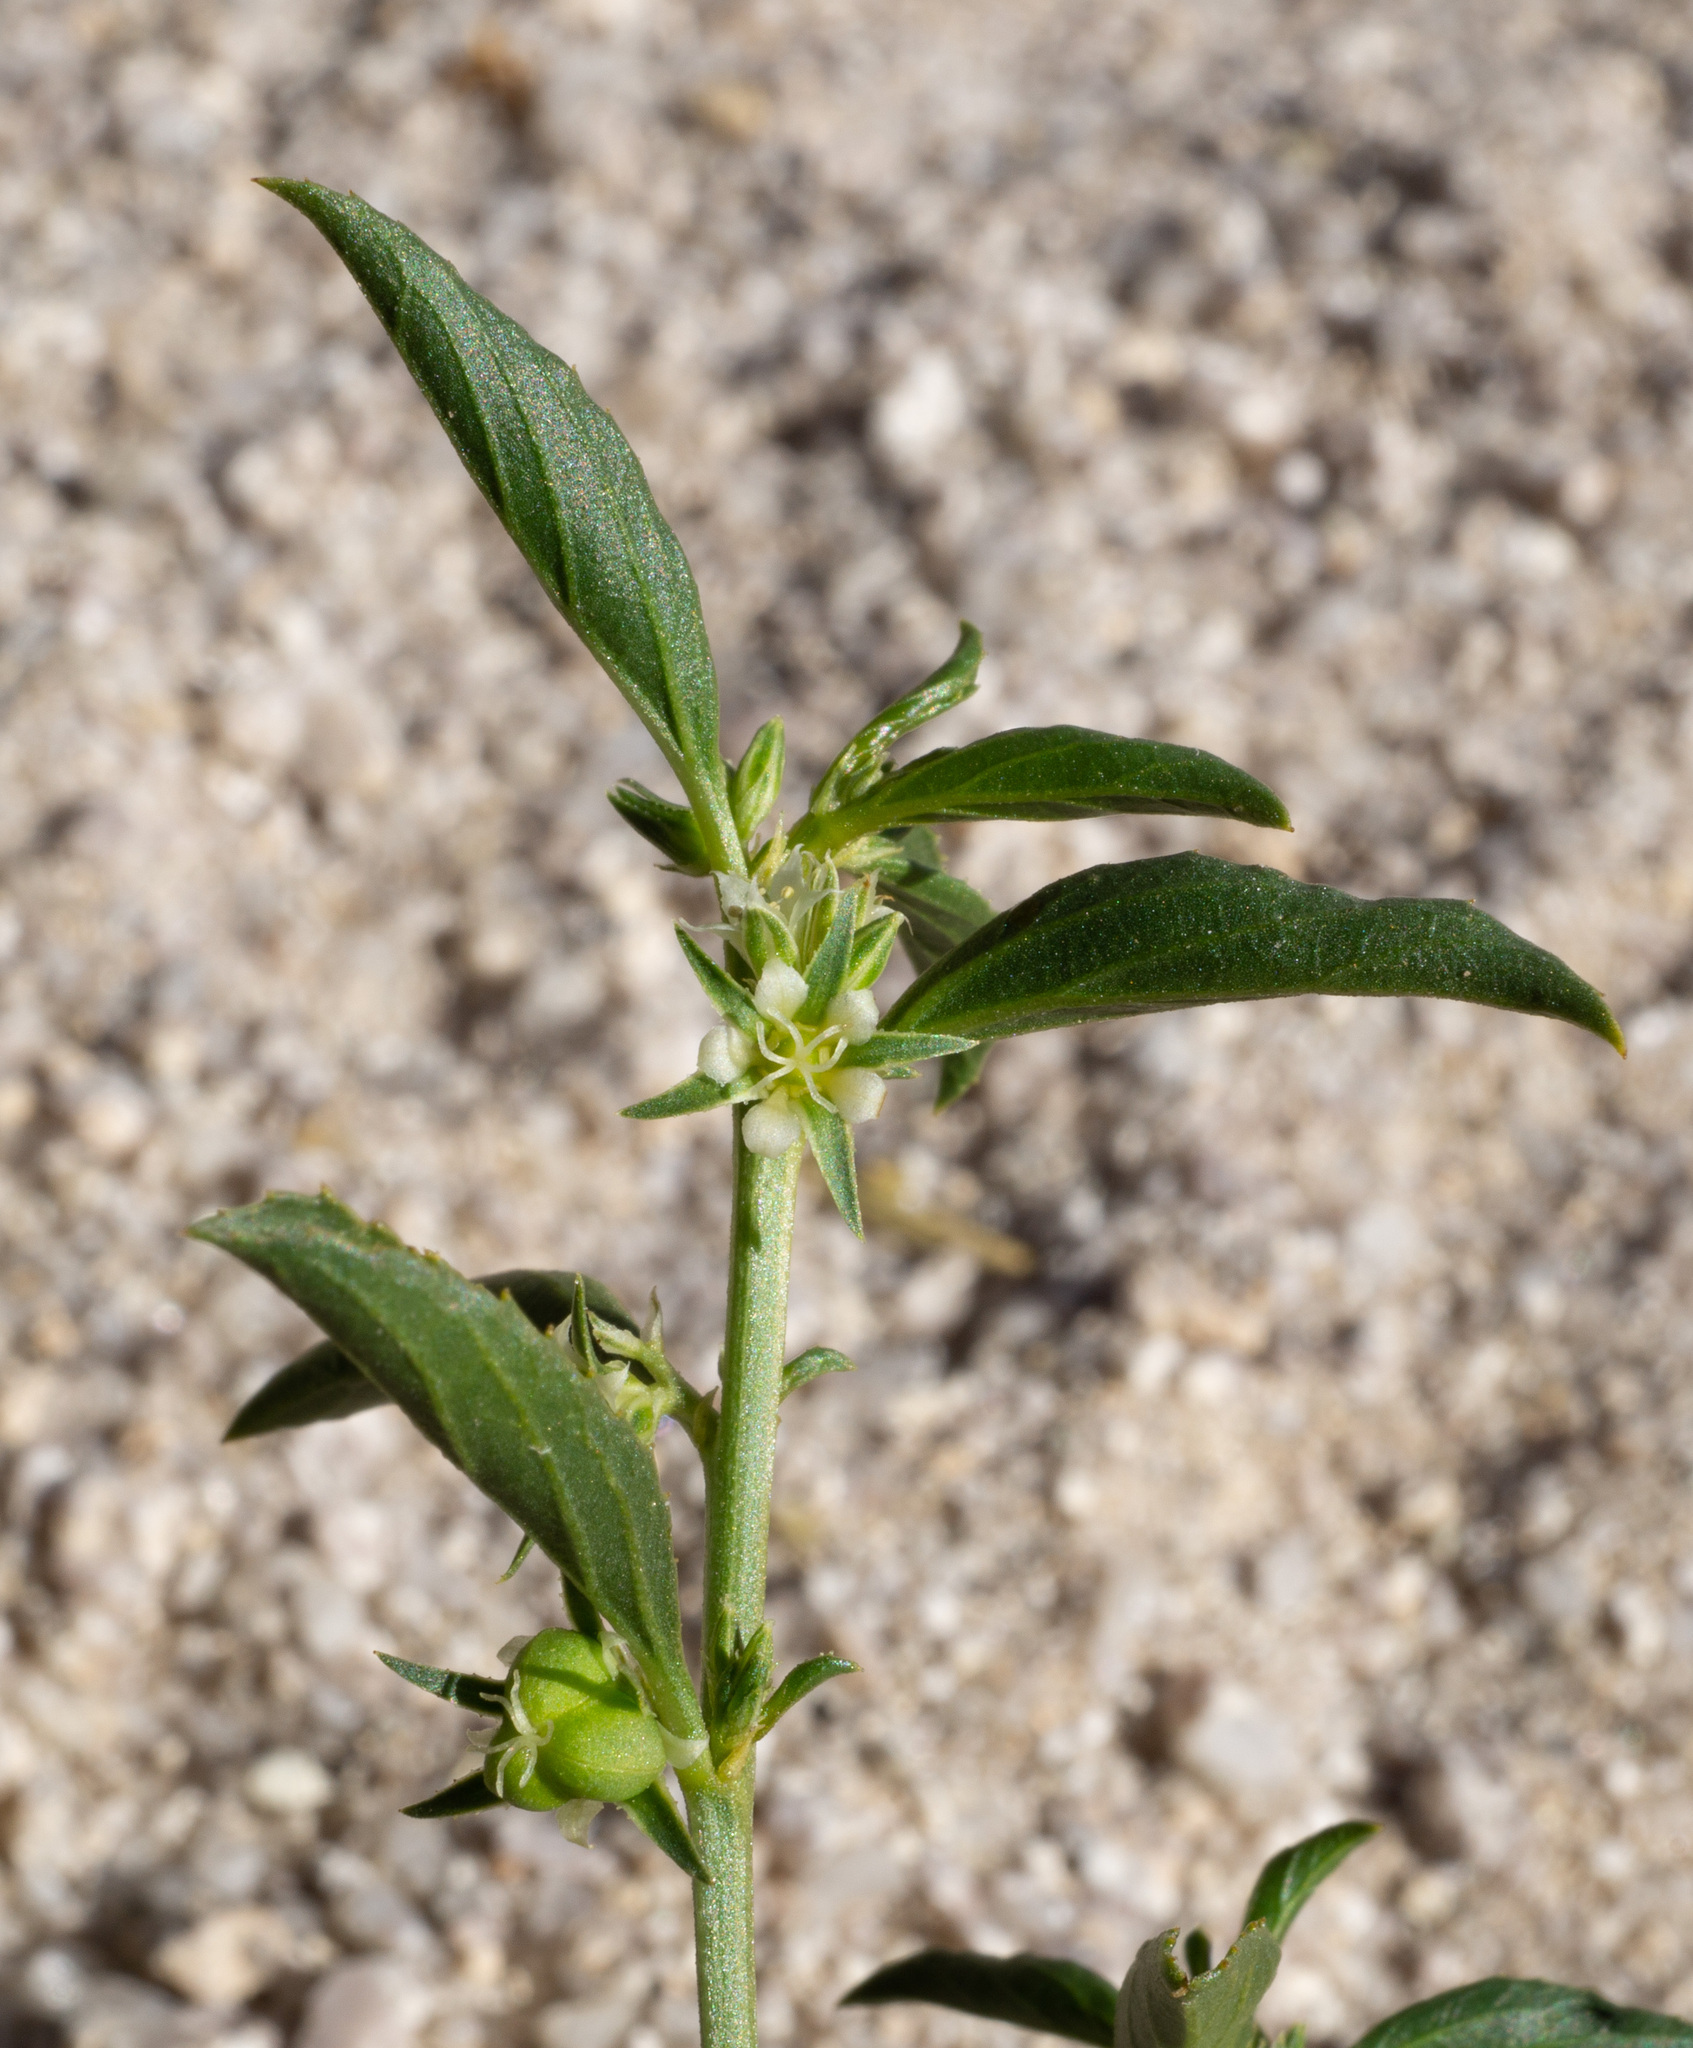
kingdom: Plantae
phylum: Tracheophyta
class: Magnoliopsida
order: Malpighiales
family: Euphorbiaceae
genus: Ditaxis
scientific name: Ditaxis serrata
